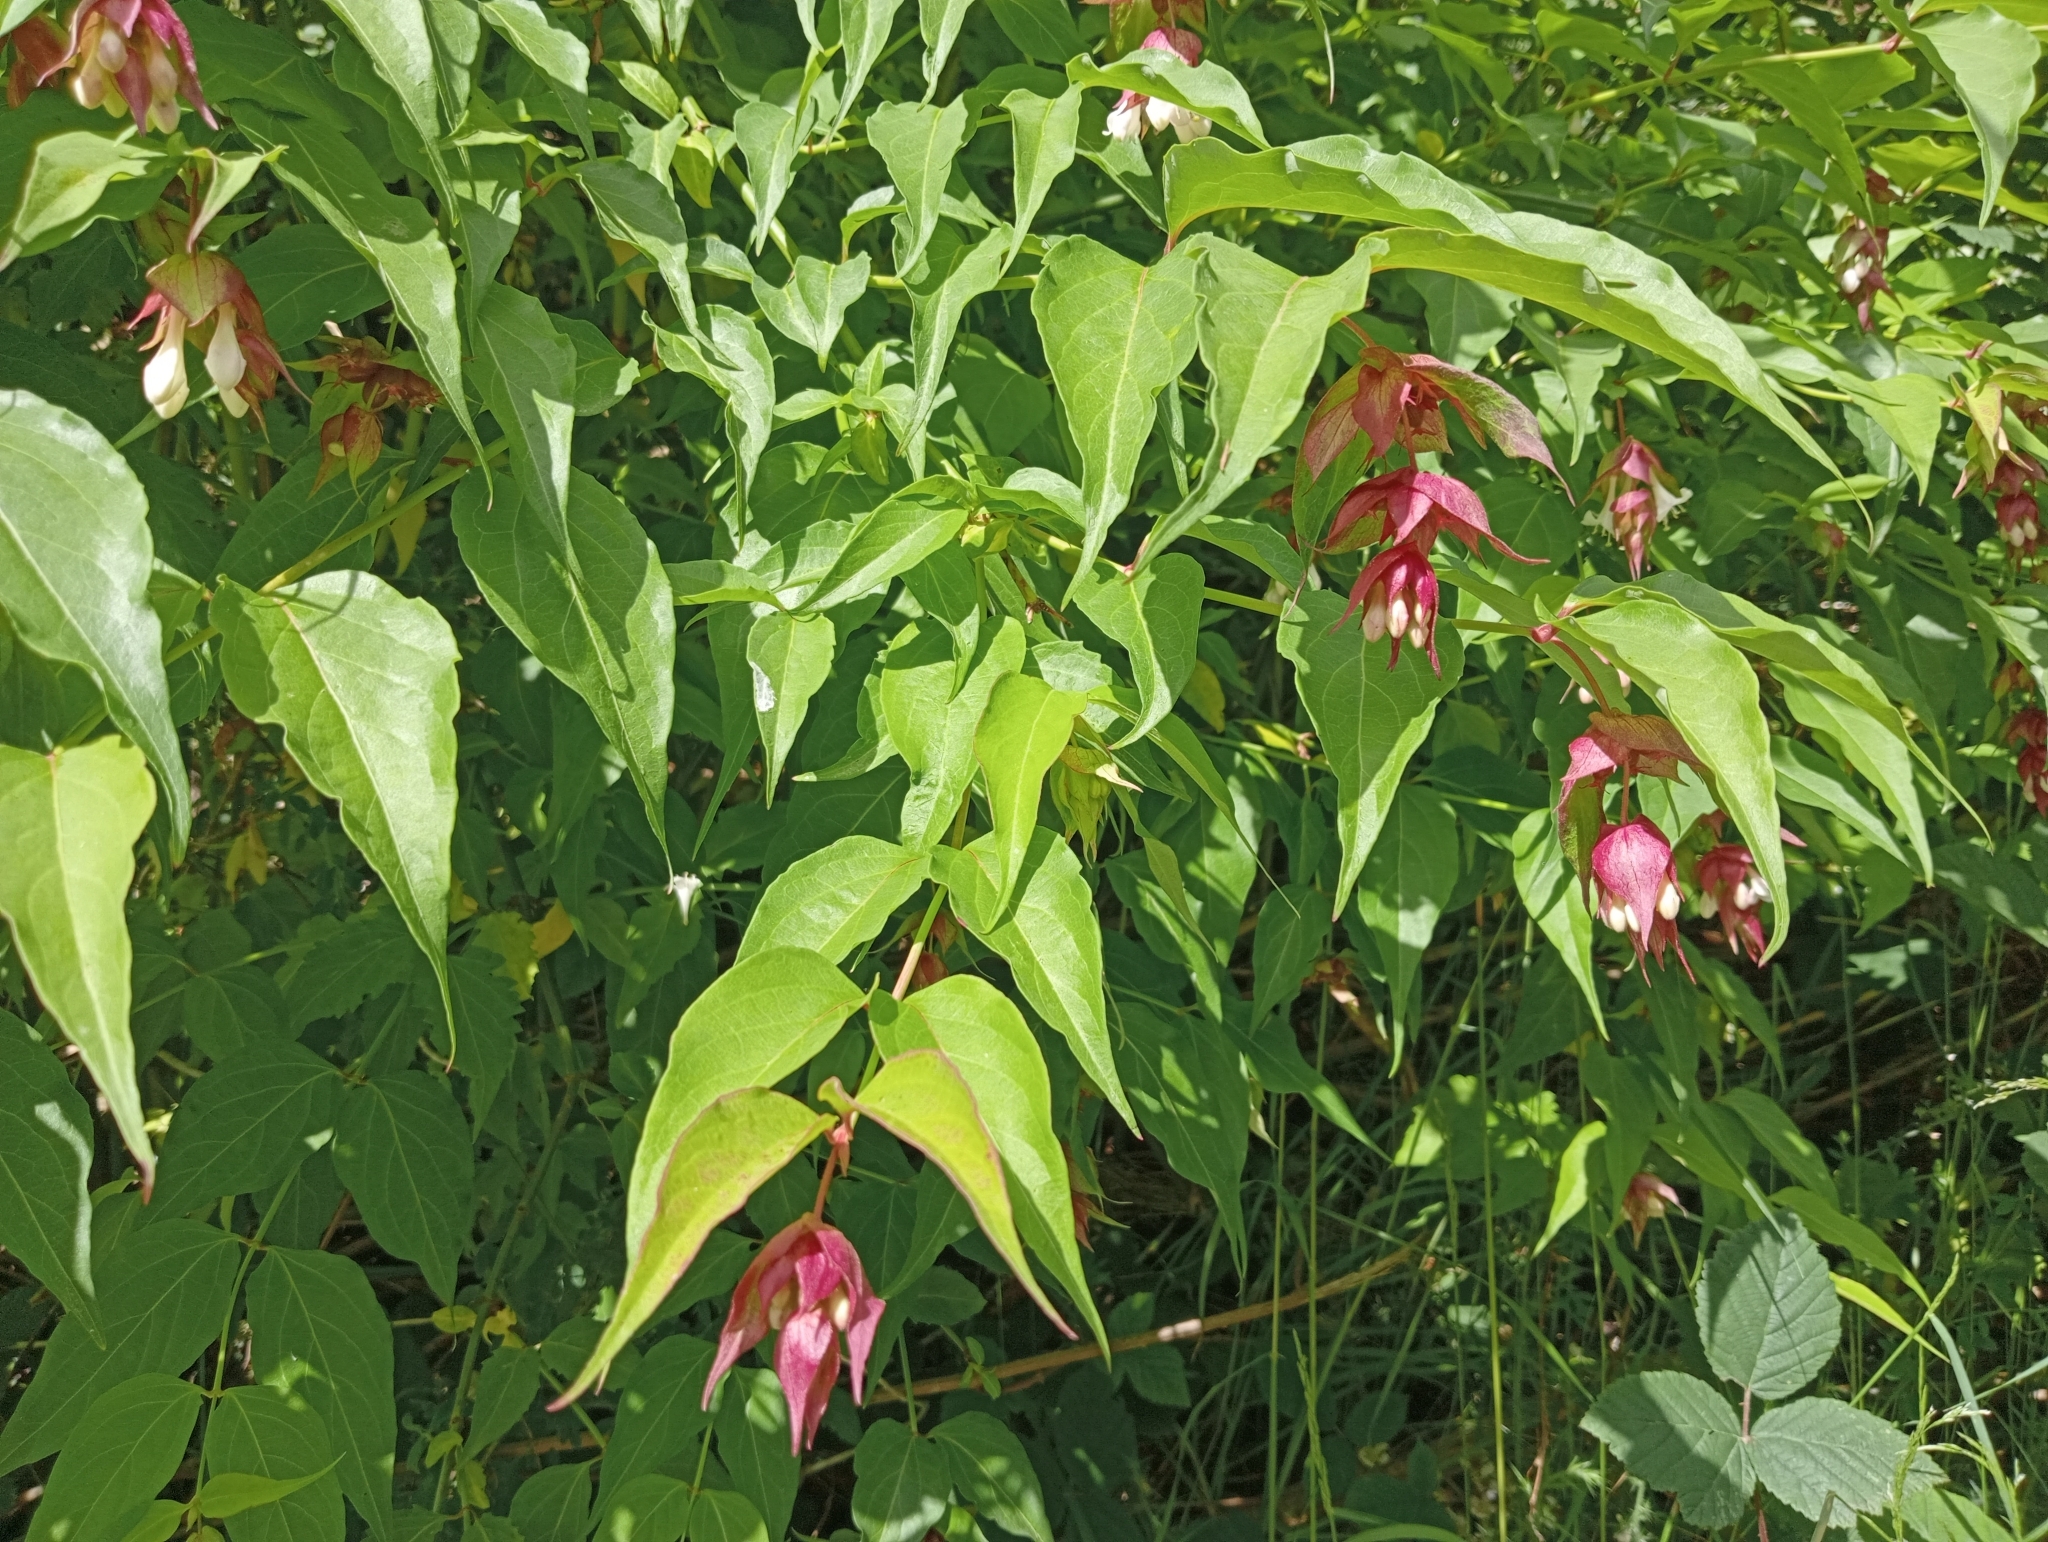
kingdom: Plantae
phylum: Tracheophyta
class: Magnoliopsida
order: Dipsacales
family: Caprifoliaceae
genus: Leycesteria
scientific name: Leycesteria formosa
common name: Himalayan honeysuckle
